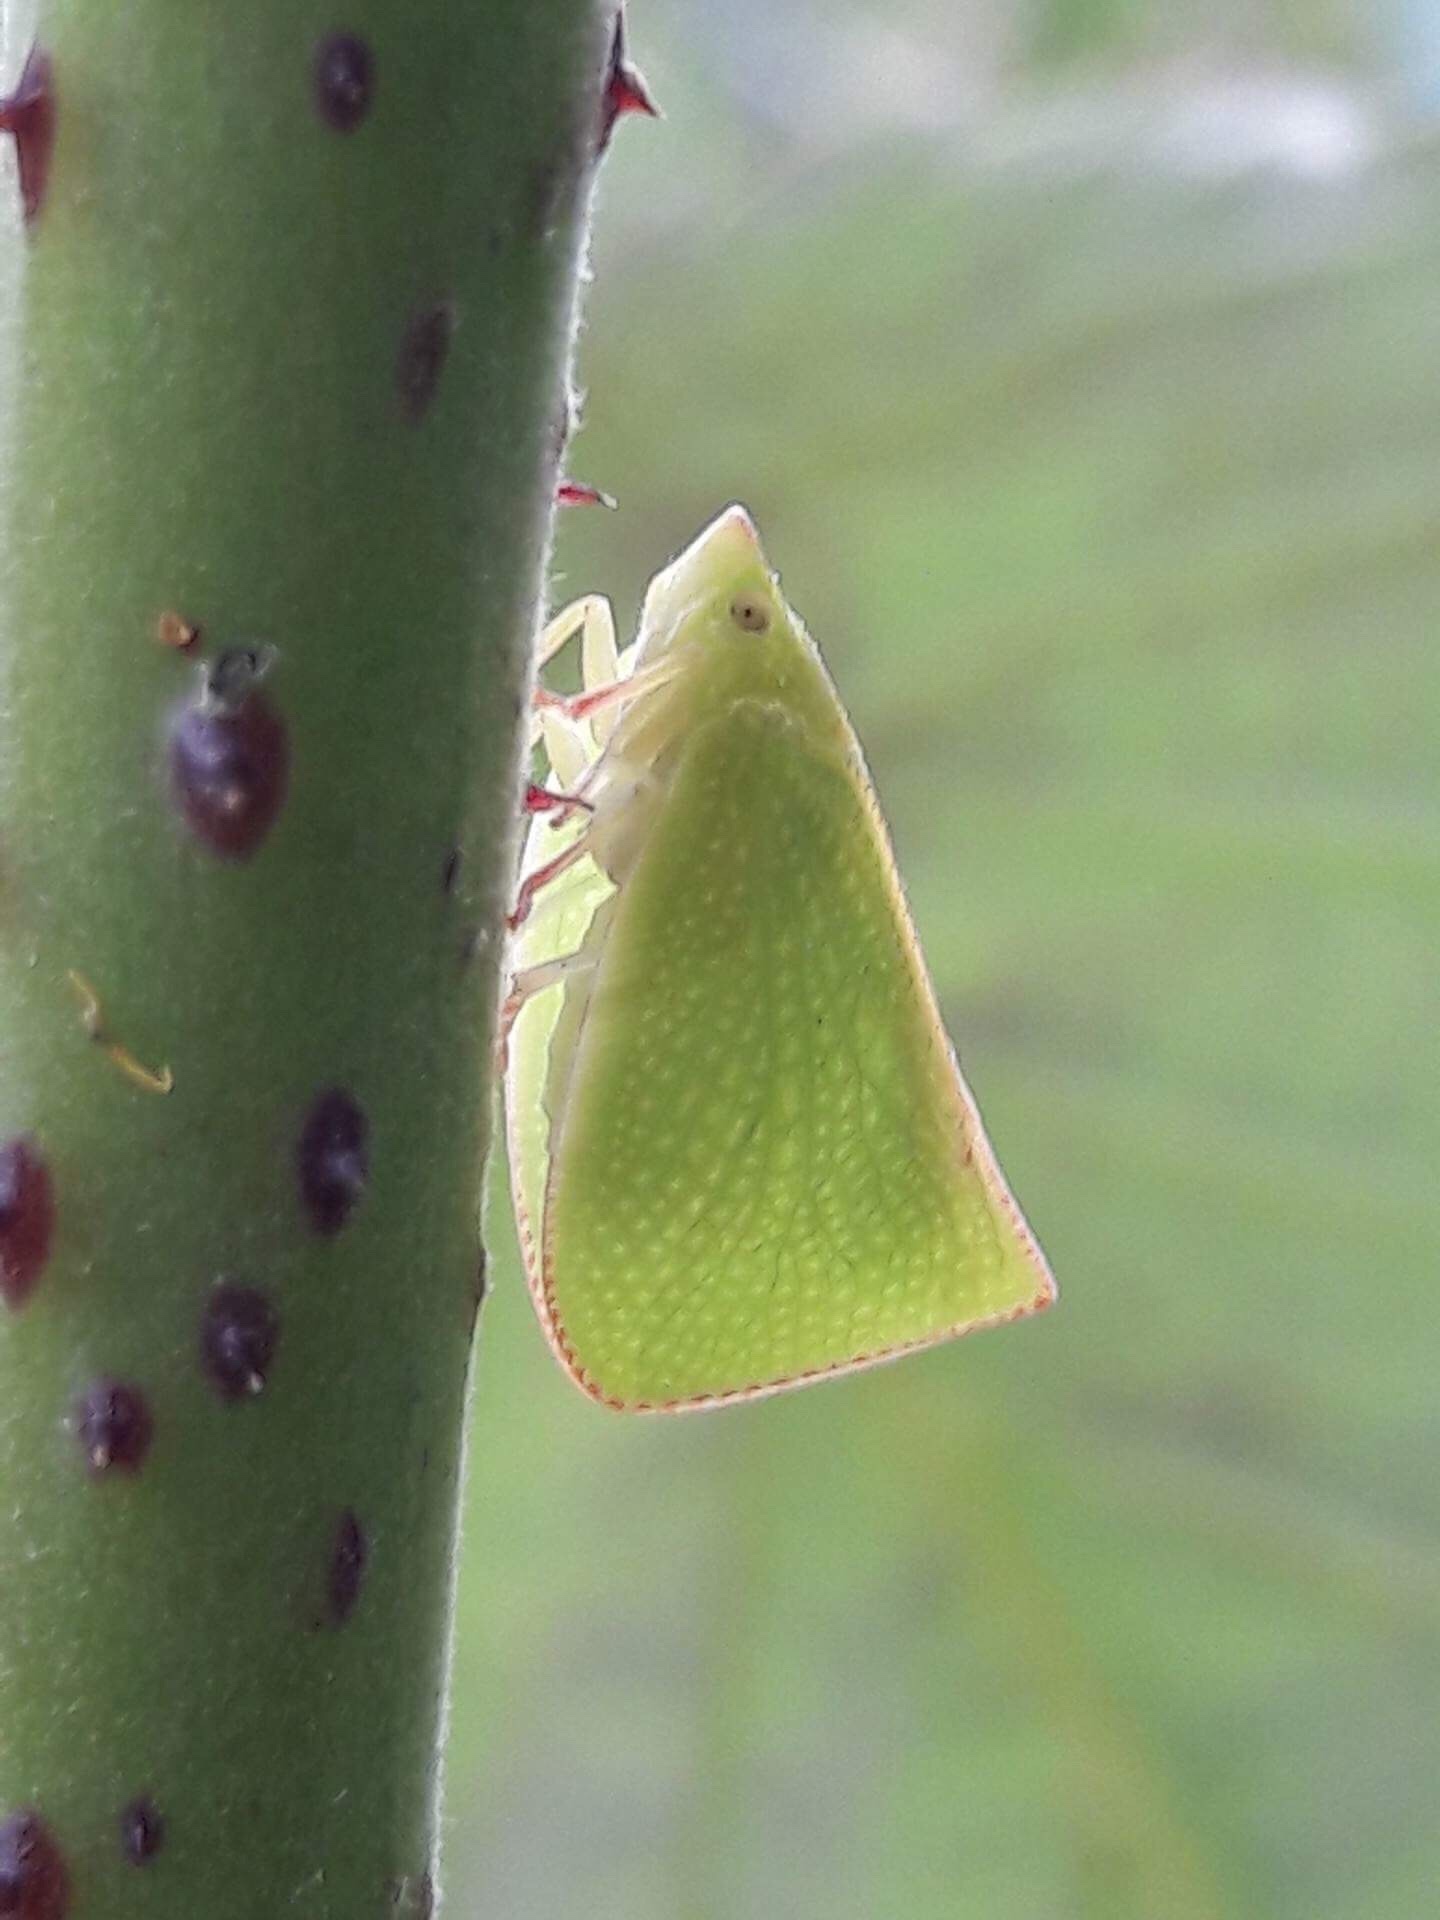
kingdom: Animalia
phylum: Arthropoda
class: Insecta
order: Hemiptera
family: Flatidae
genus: Siphanta
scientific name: Siphanta acuta
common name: Torpedo bug
